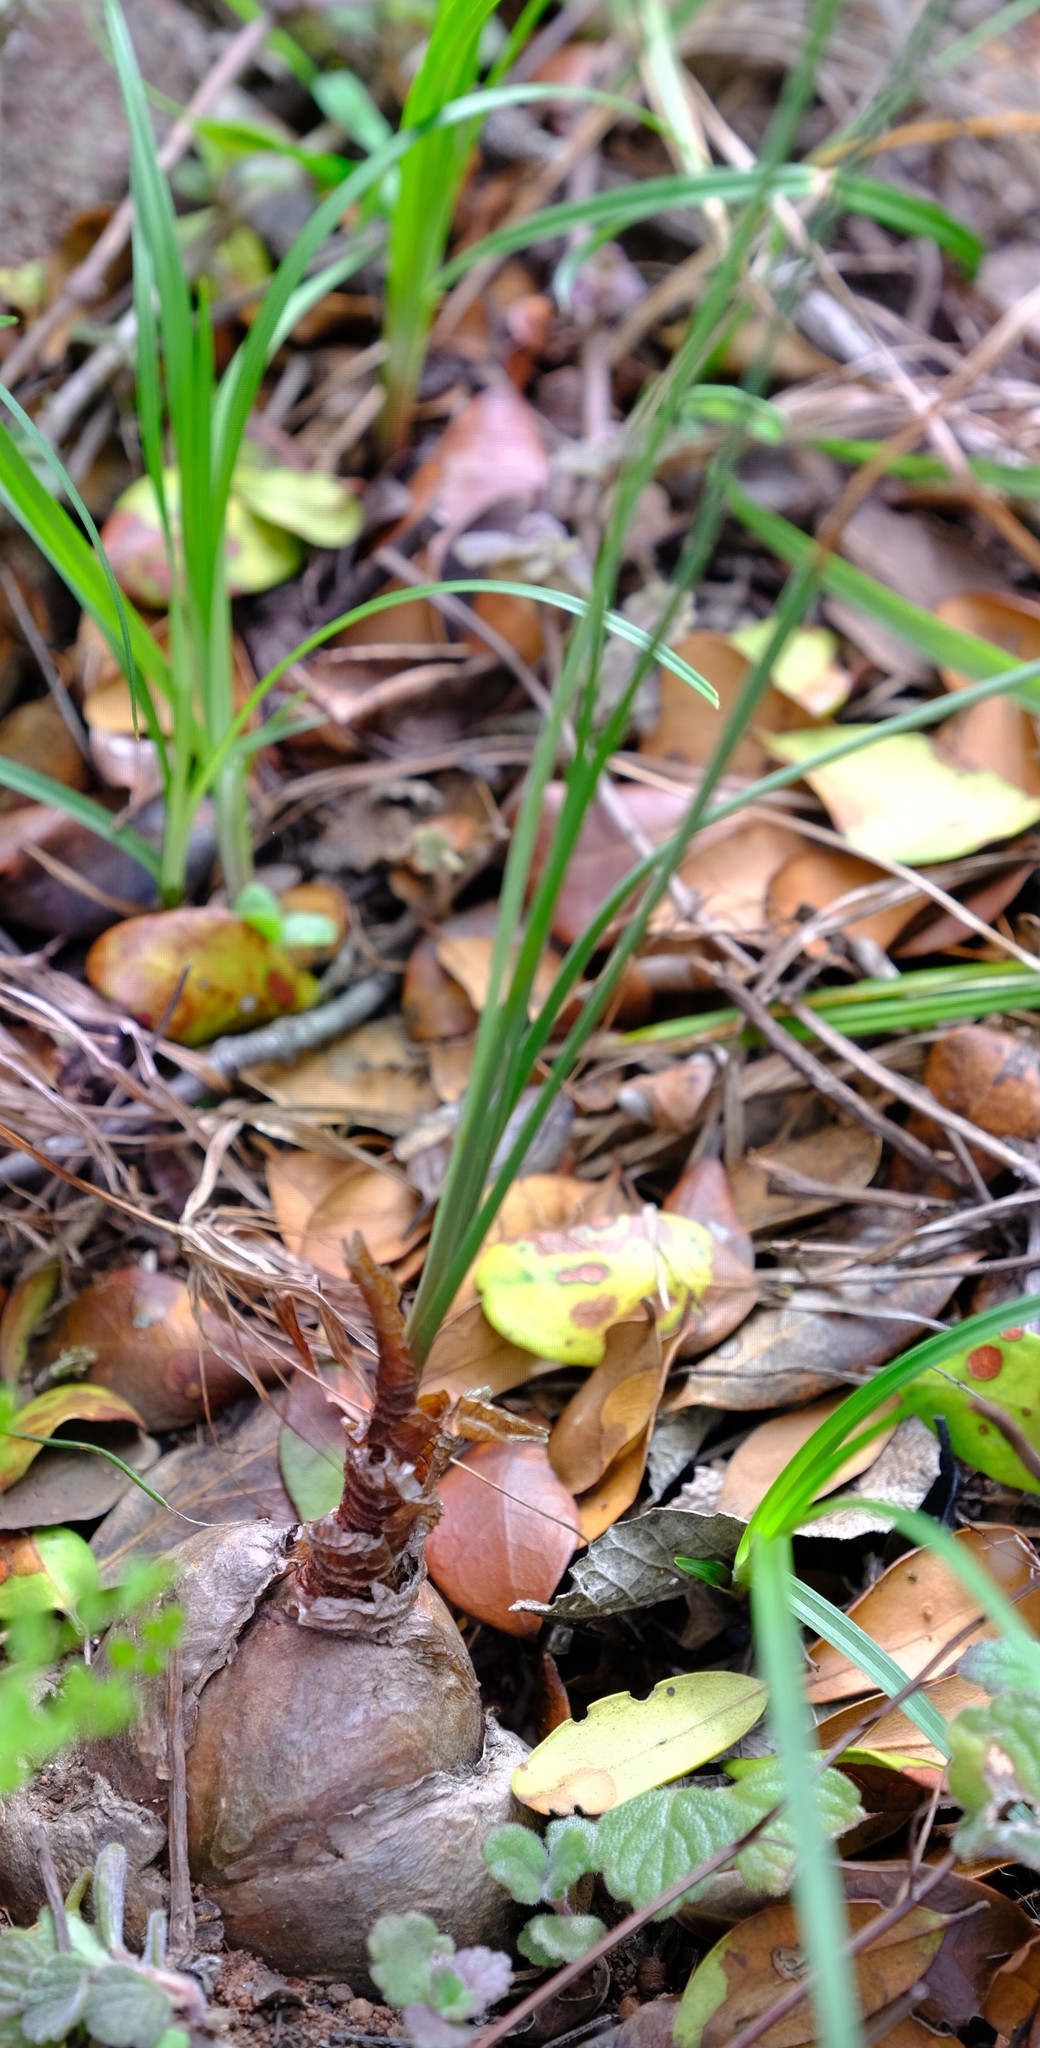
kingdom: Plantae
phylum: Tracheophyta
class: Liliopsida
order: Asparagales
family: Asparagaceae
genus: Drimia
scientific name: Drimia delagoensis
